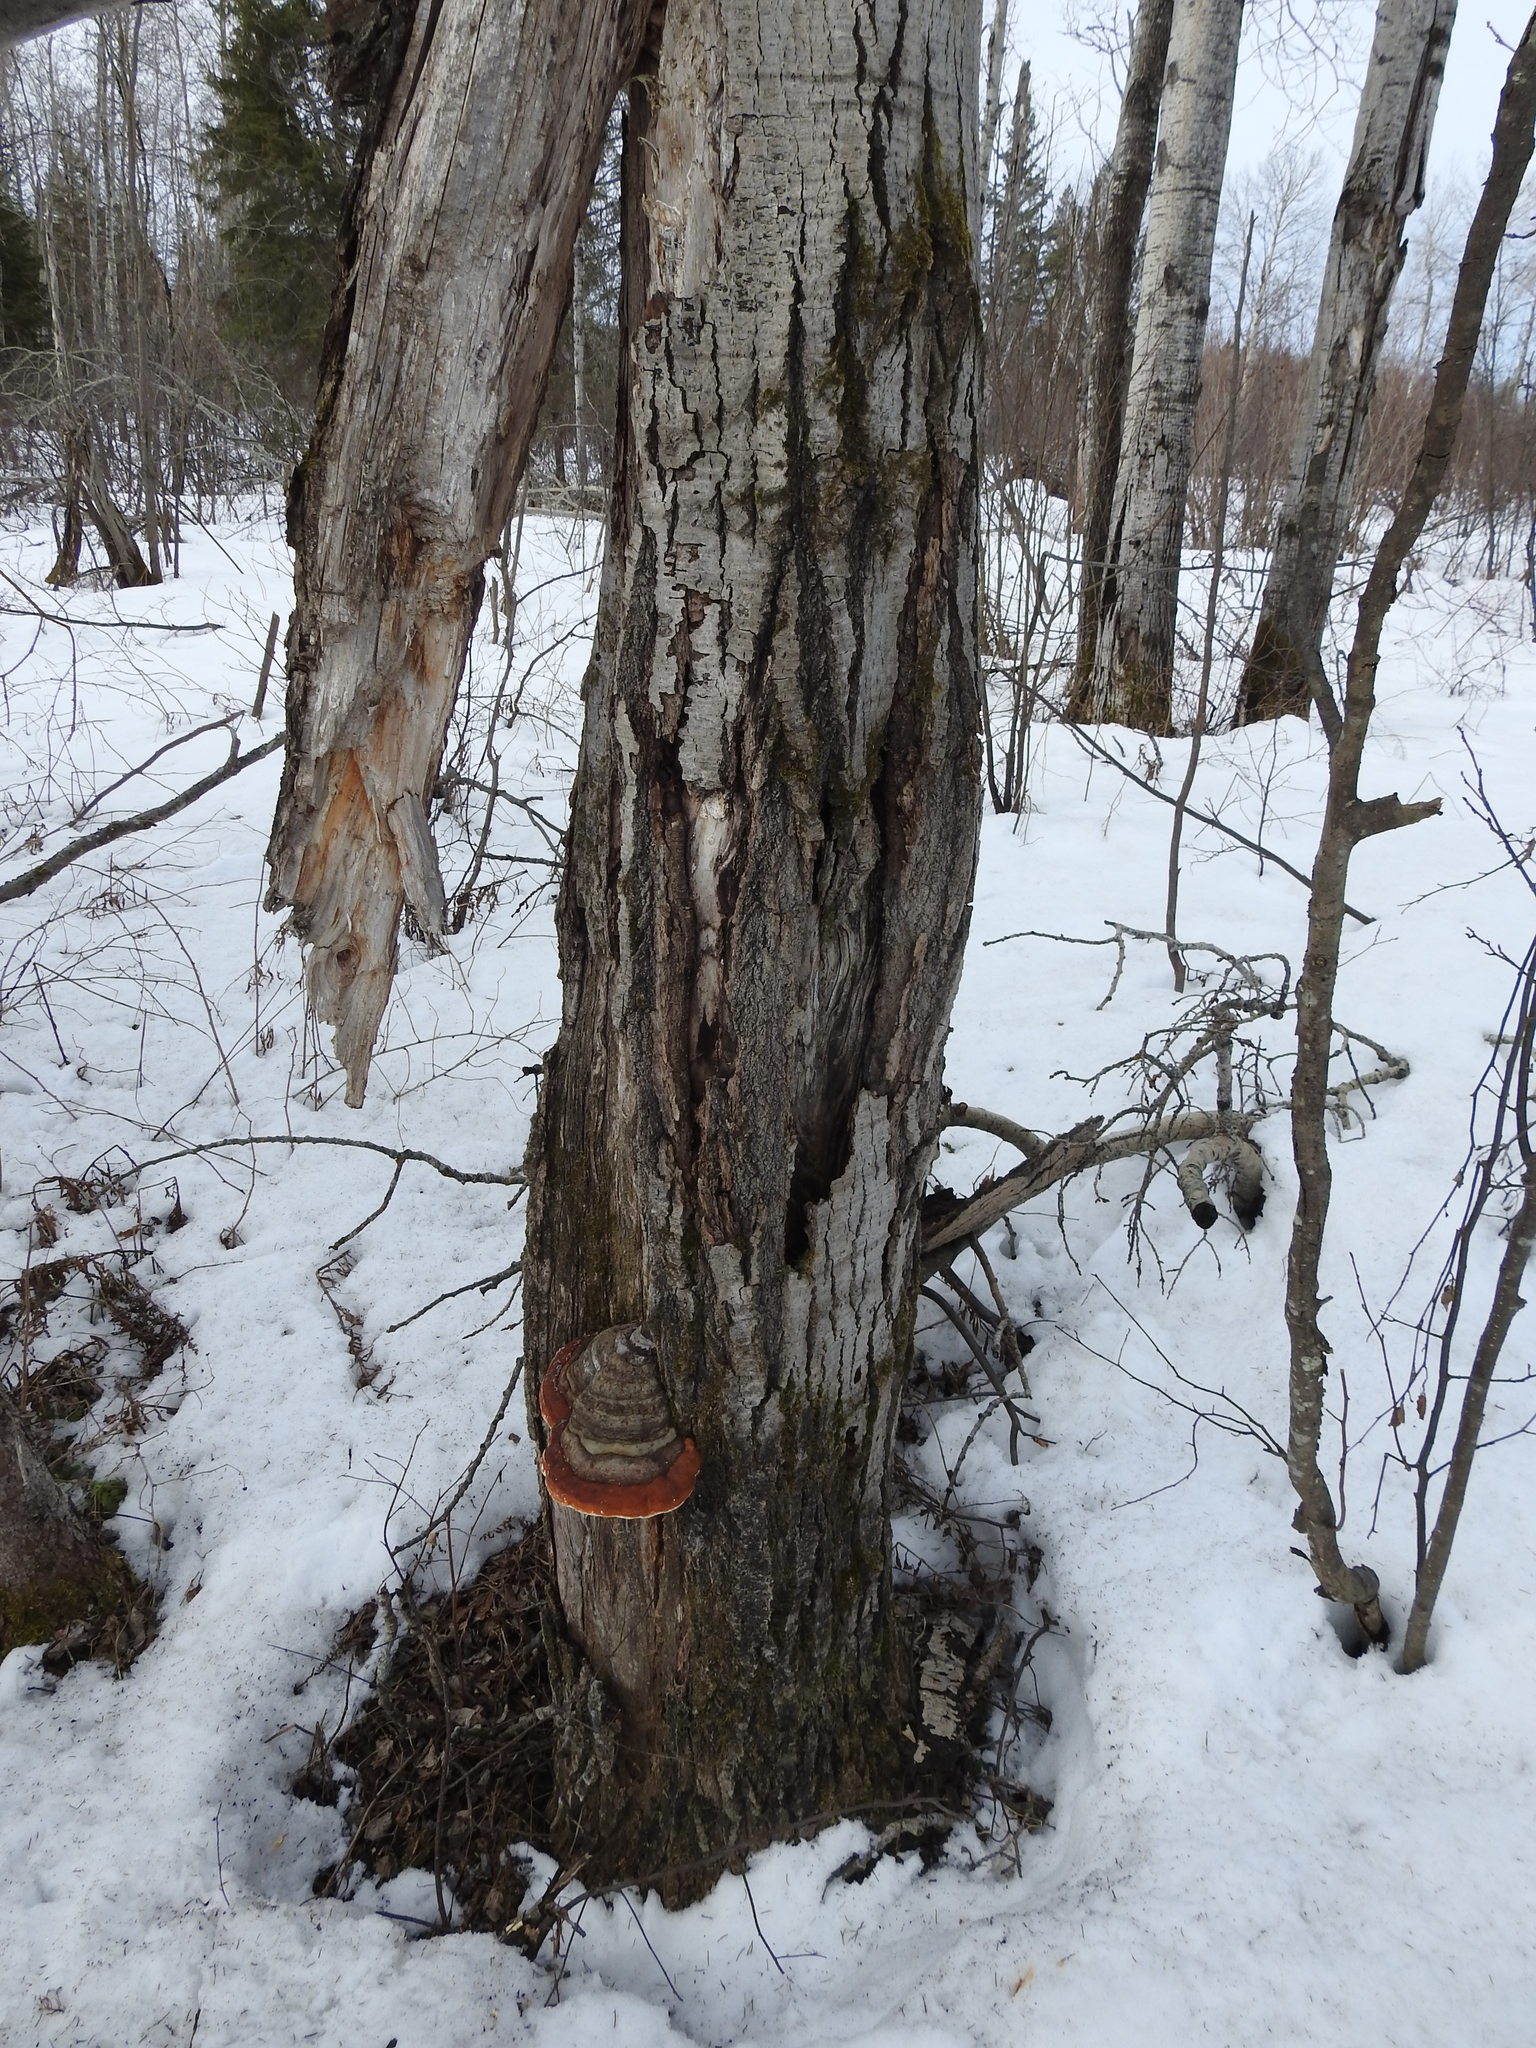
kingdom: Fungi
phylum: Basidiomycota
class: Agaricomycetes
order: Polyporales
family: Fomitopsidaceae
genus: Fomitopsis
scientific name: Fomitopsis mounceae
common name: Northern red belt
